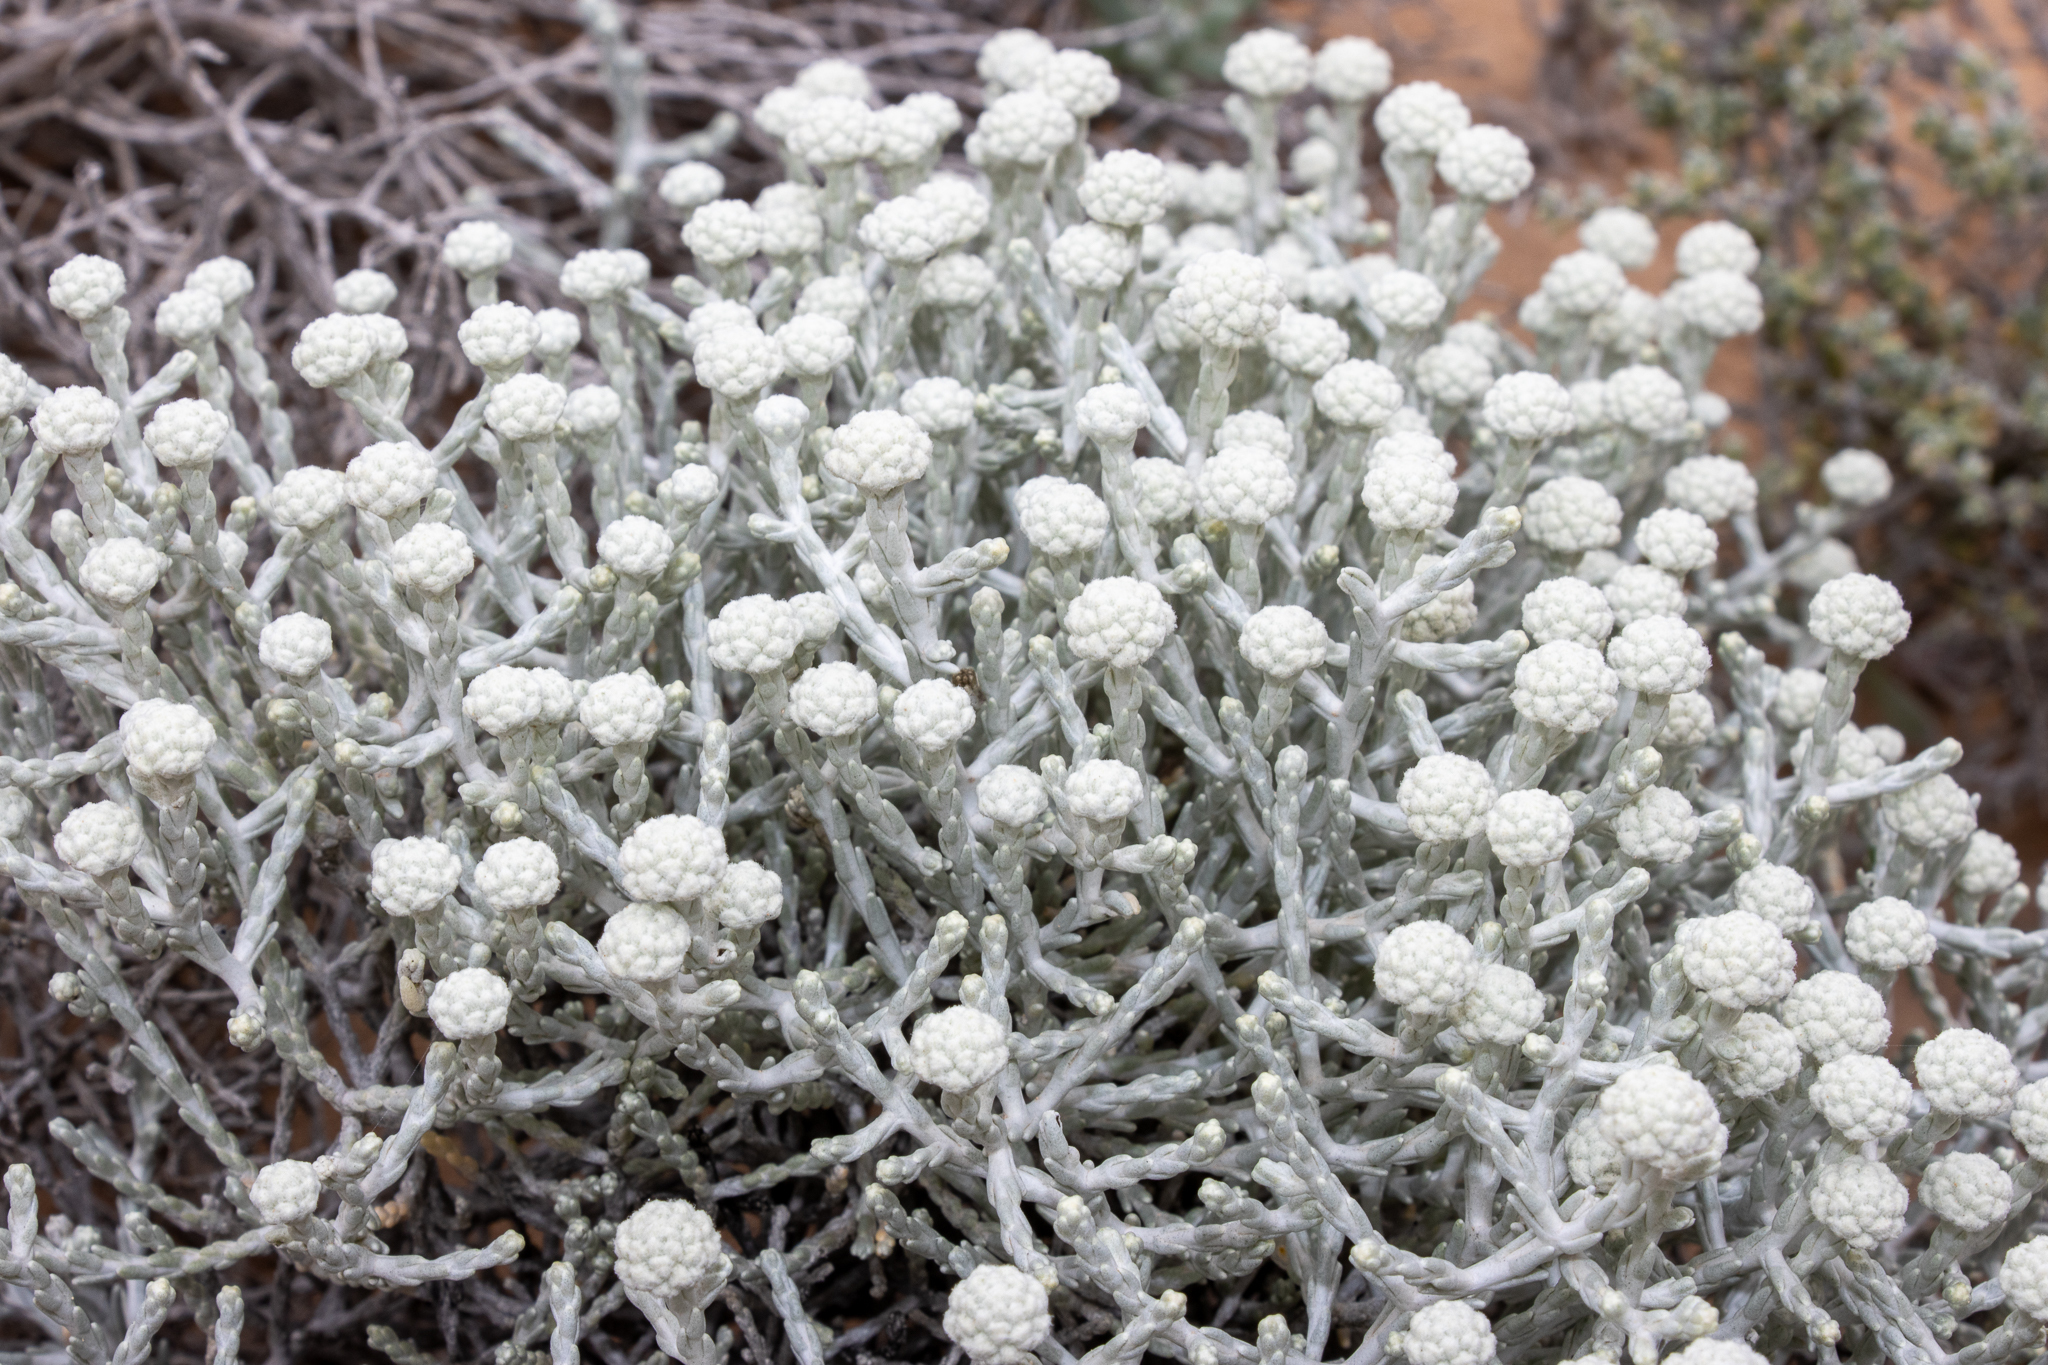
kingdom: Plantae
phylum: Tracheophyta
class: Magnoliopsida
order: Asterales
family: Asteraceae
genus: Calocephalus
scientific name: Calocephalus brownii
